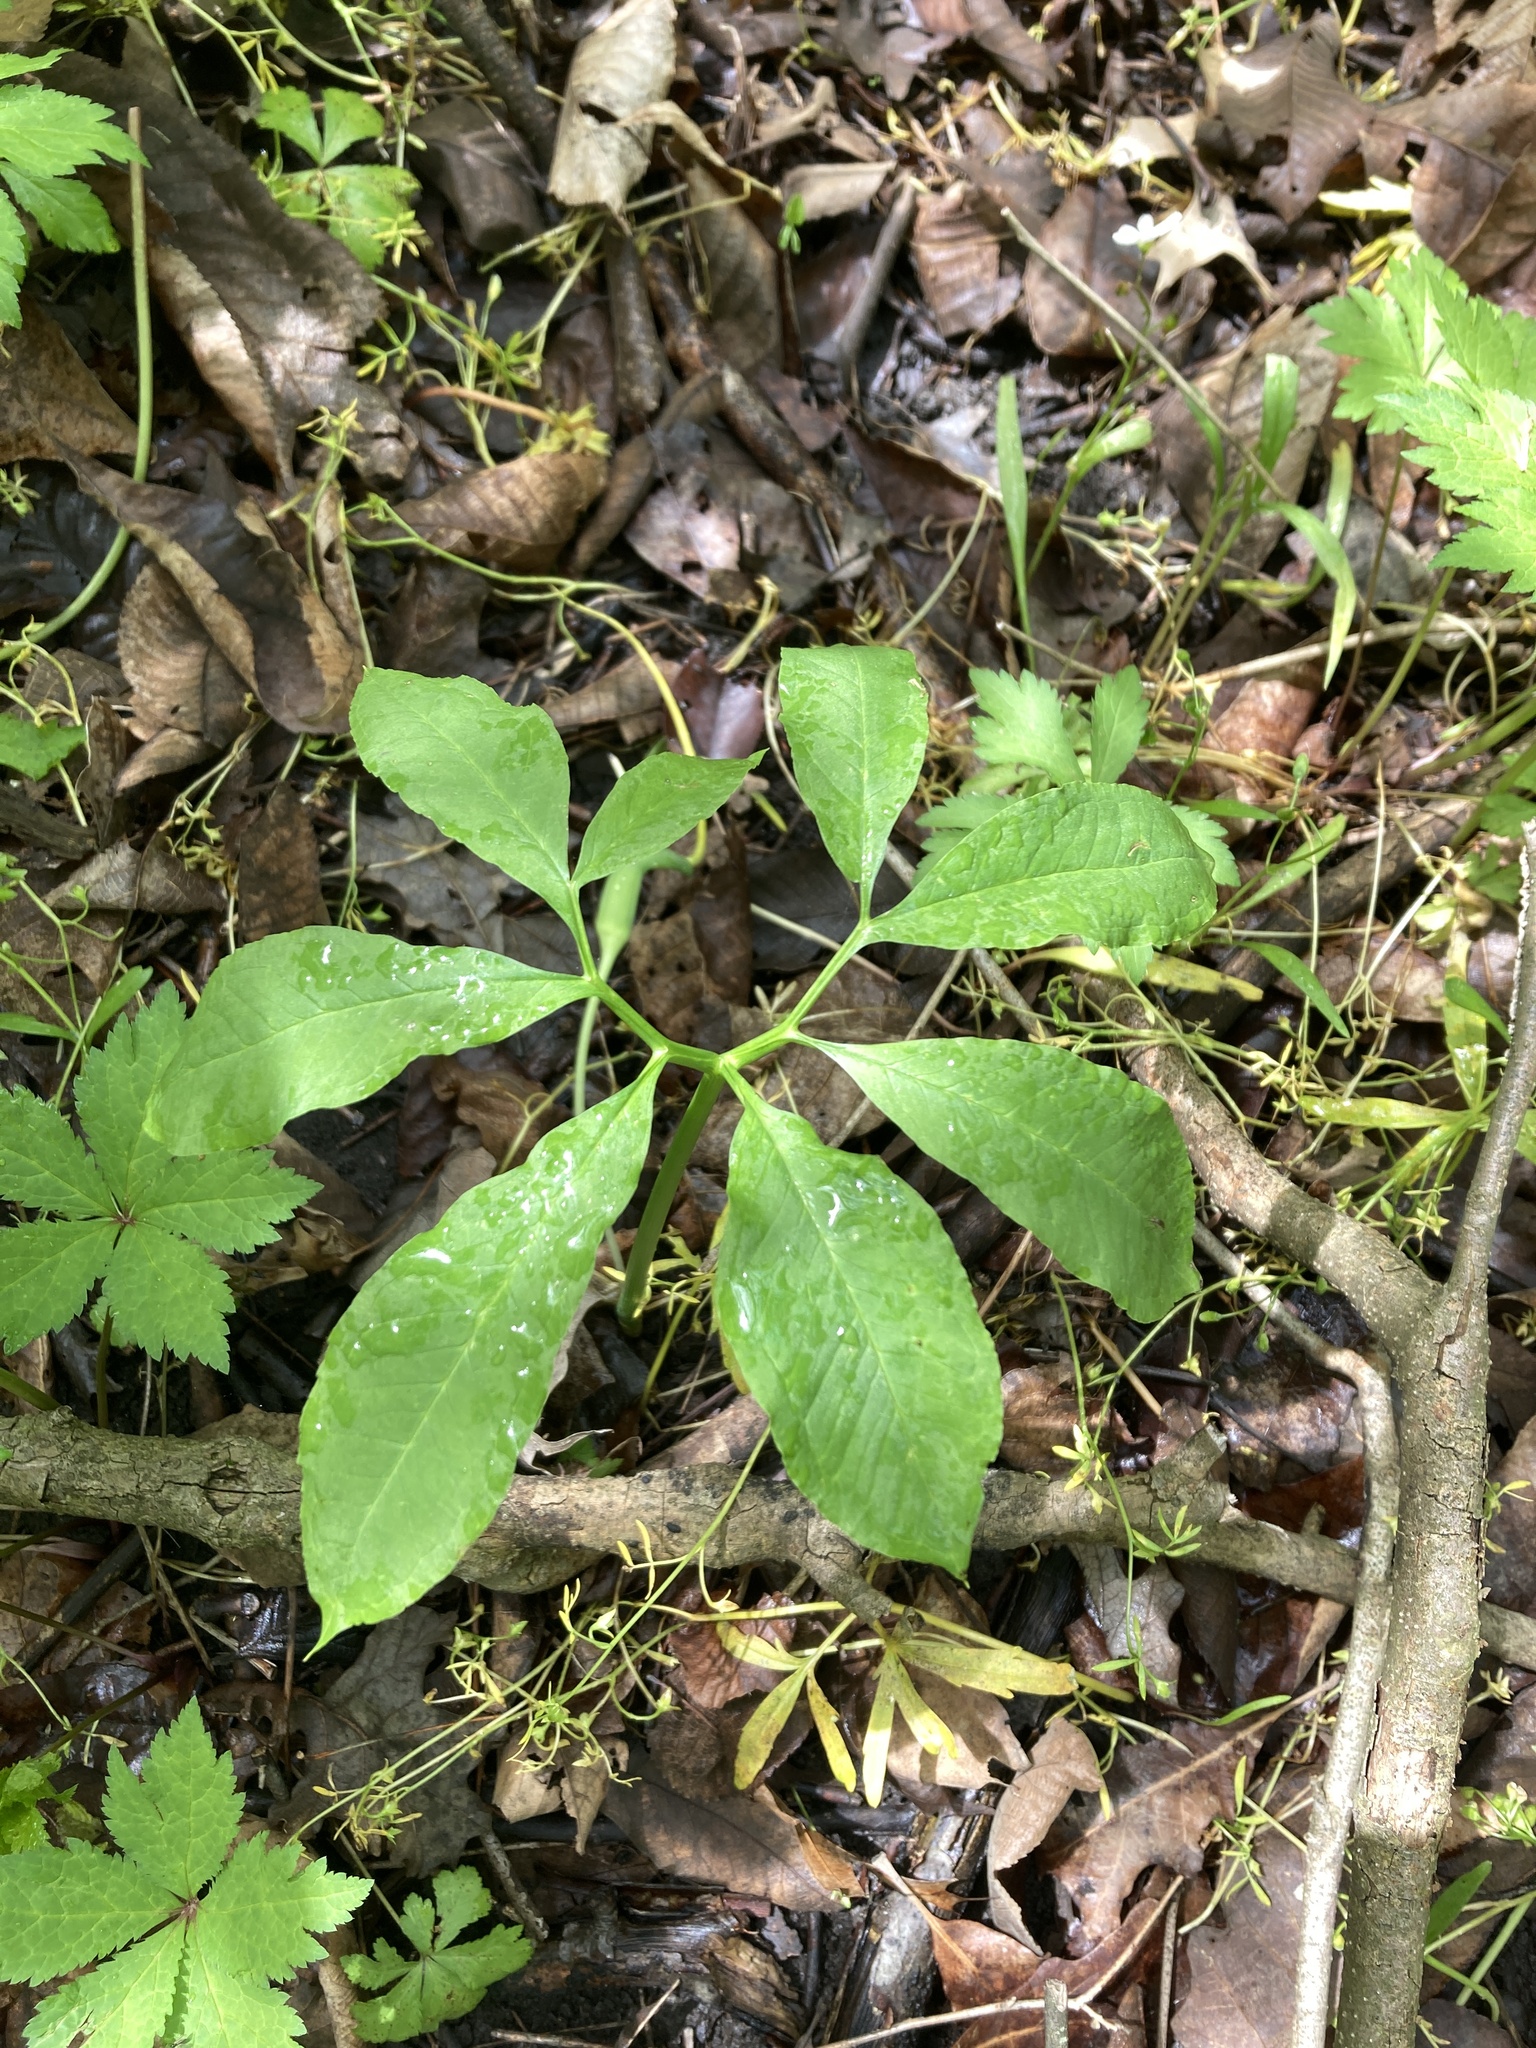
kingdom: Plantae
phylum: Tracheophyta
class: Liliopsida
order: Alismatales
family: Araceae
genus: Arisaema
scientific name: Arisaema dracontium
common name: Dragon-arum
